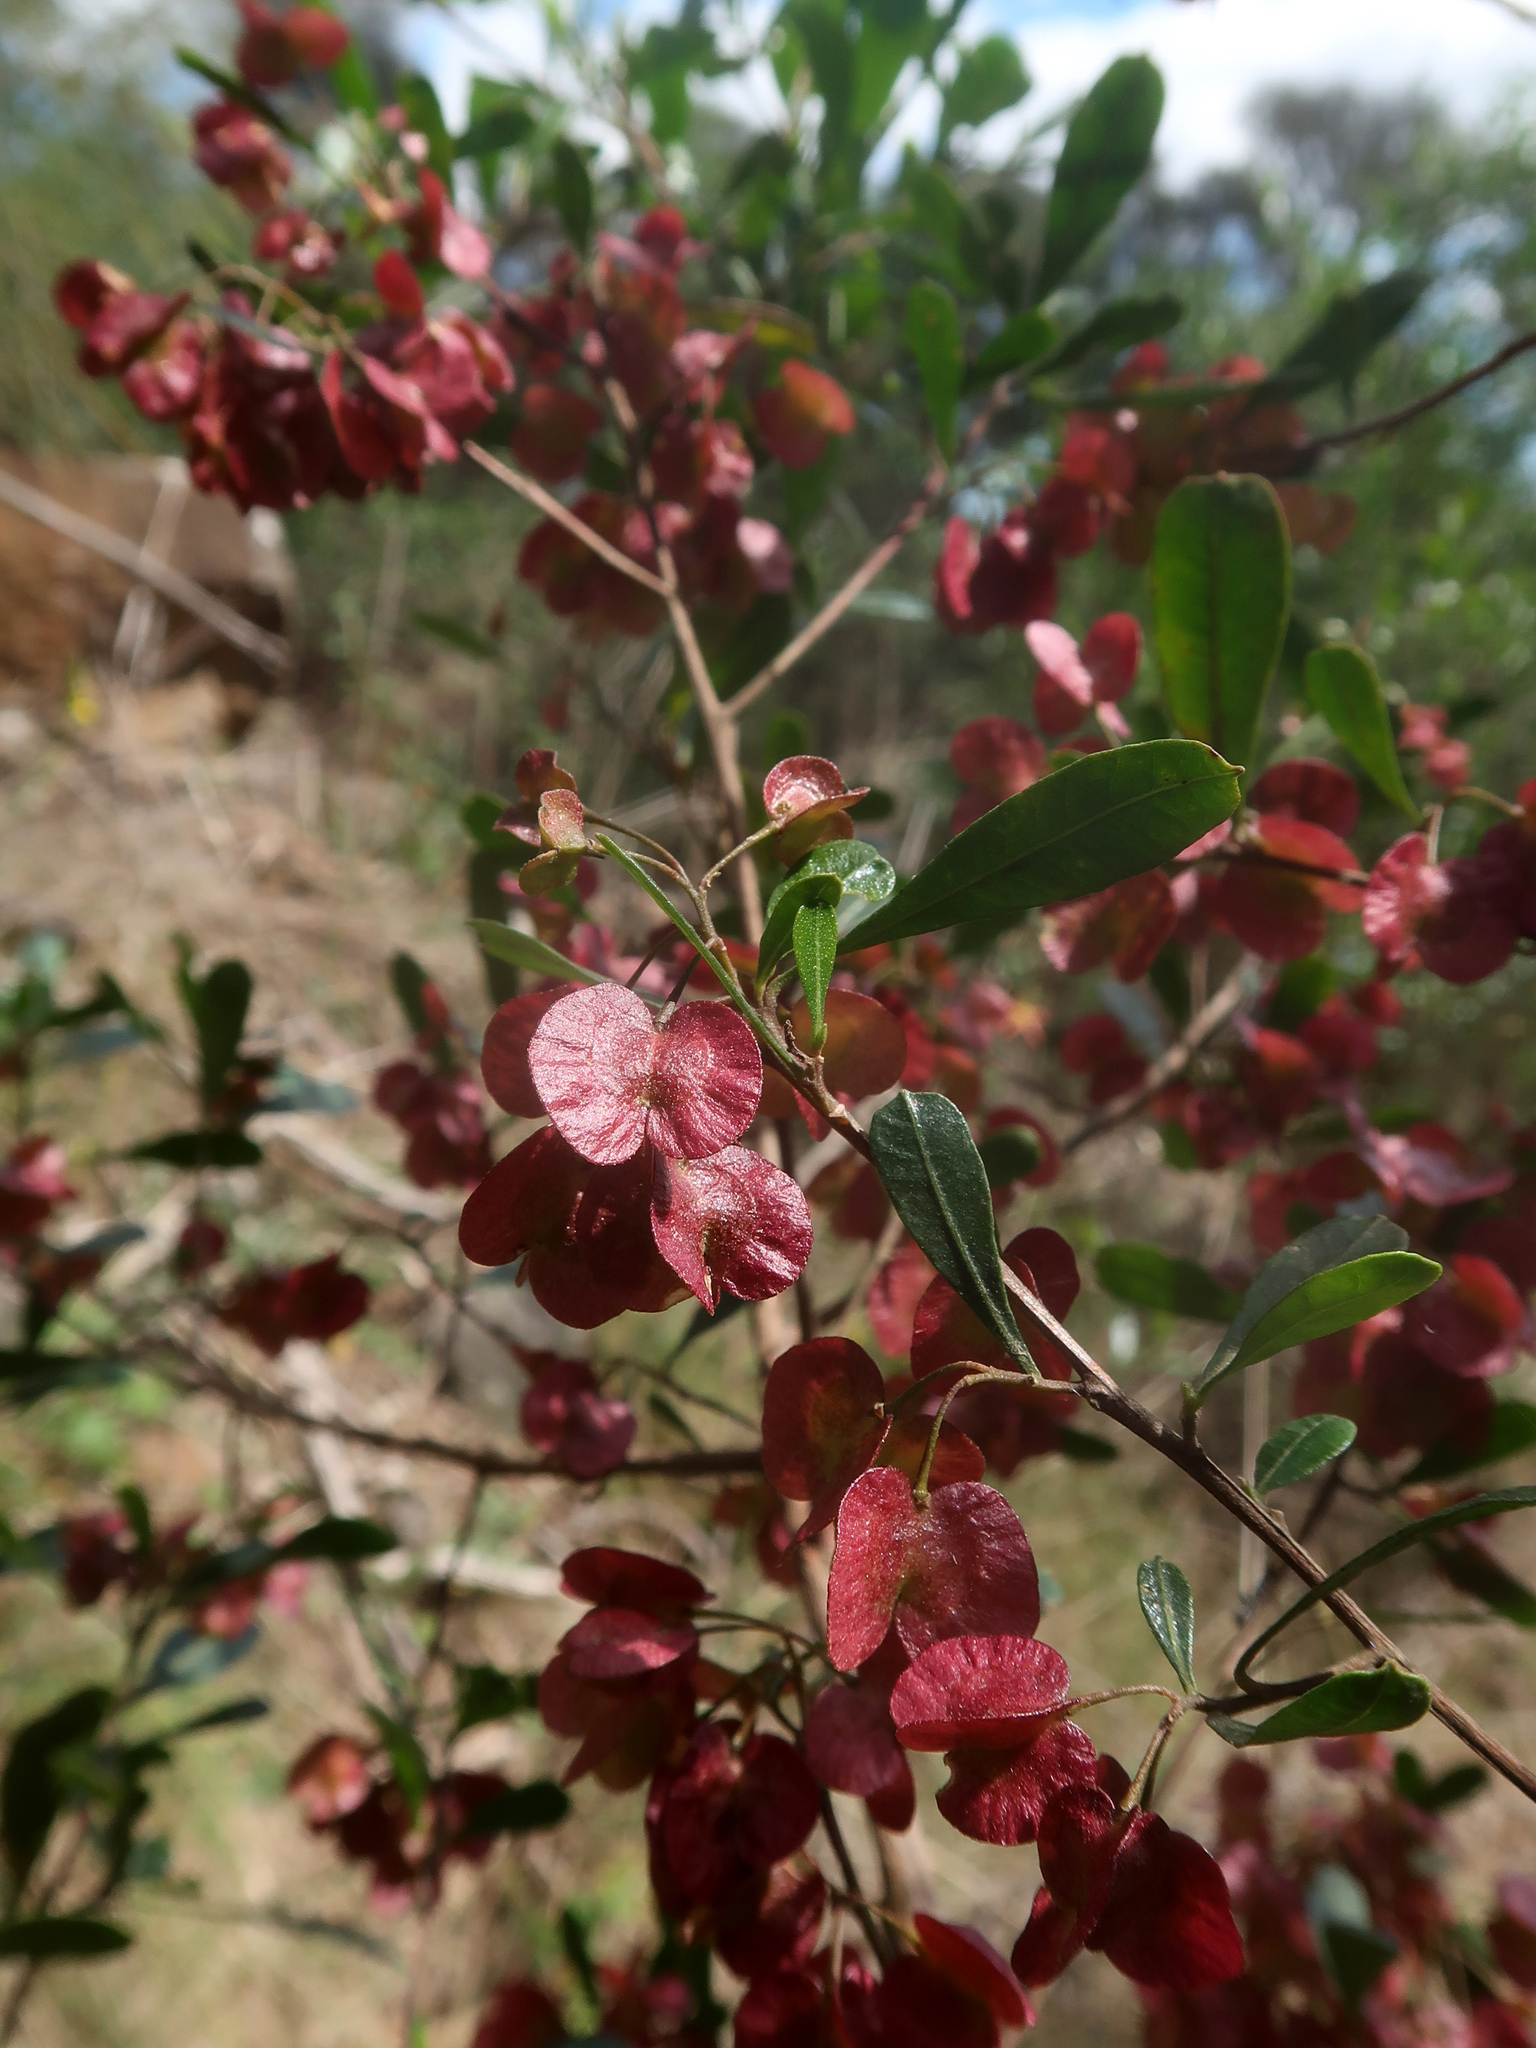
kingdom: Plantae
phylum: Tracheophyta
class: Magnoliopsida
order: Sapindales
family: Sapindaceae
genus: Dodonaea
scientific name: Dodonaea viscosa
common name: Hopbush
